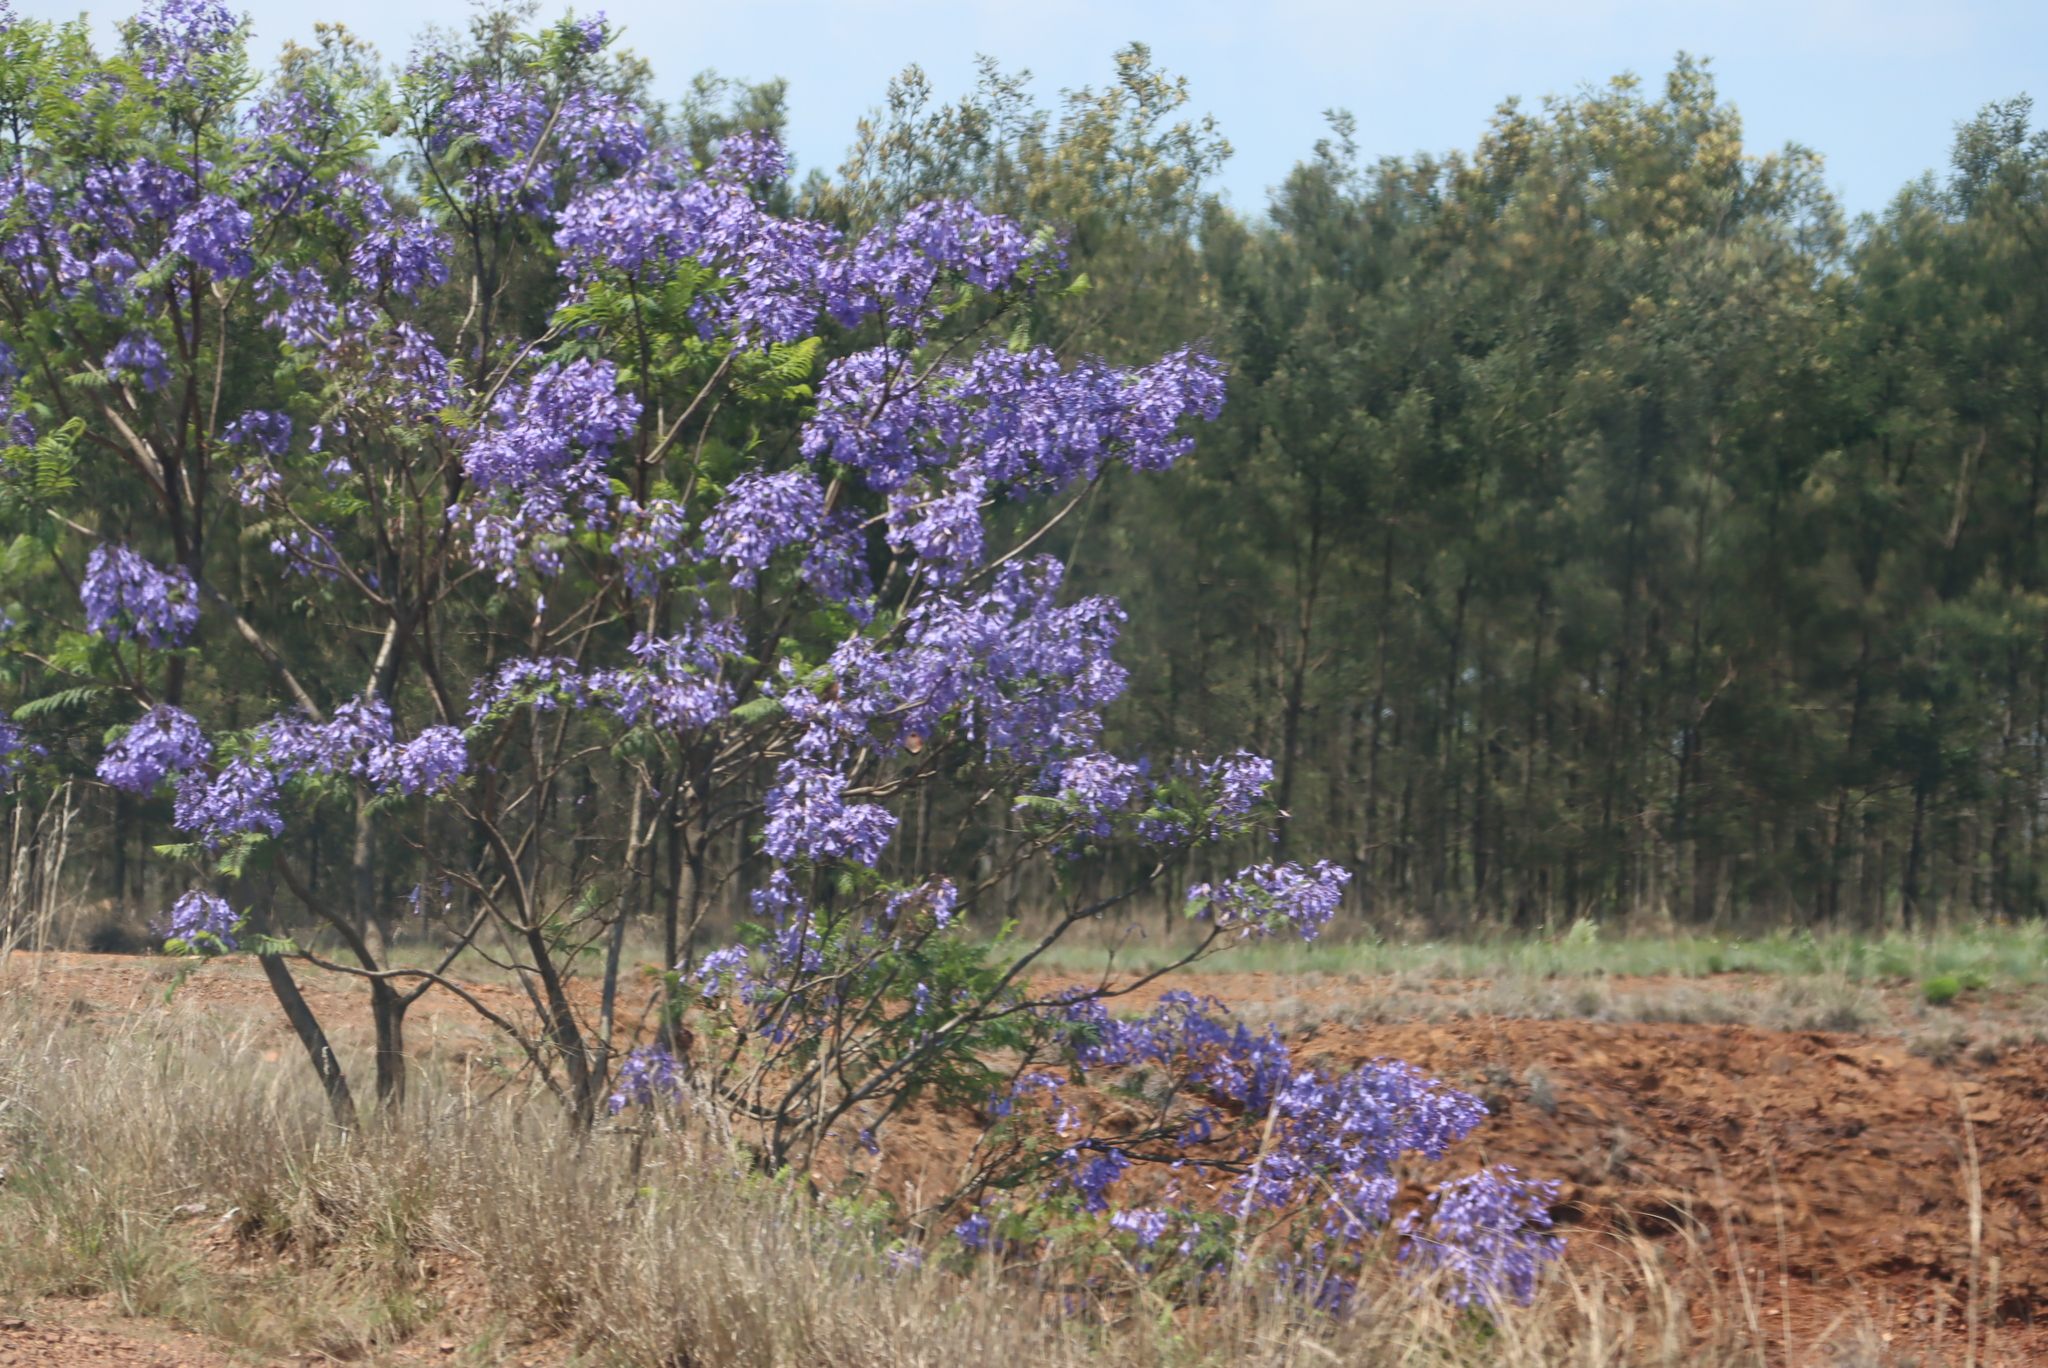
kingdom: Plantae
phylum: Tracheophyta
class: Magnoliopsida
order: Lamiales
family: Bignoniaceae
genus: Jacaranda
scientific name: Jacaranda mimosifolia
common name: Black poui
